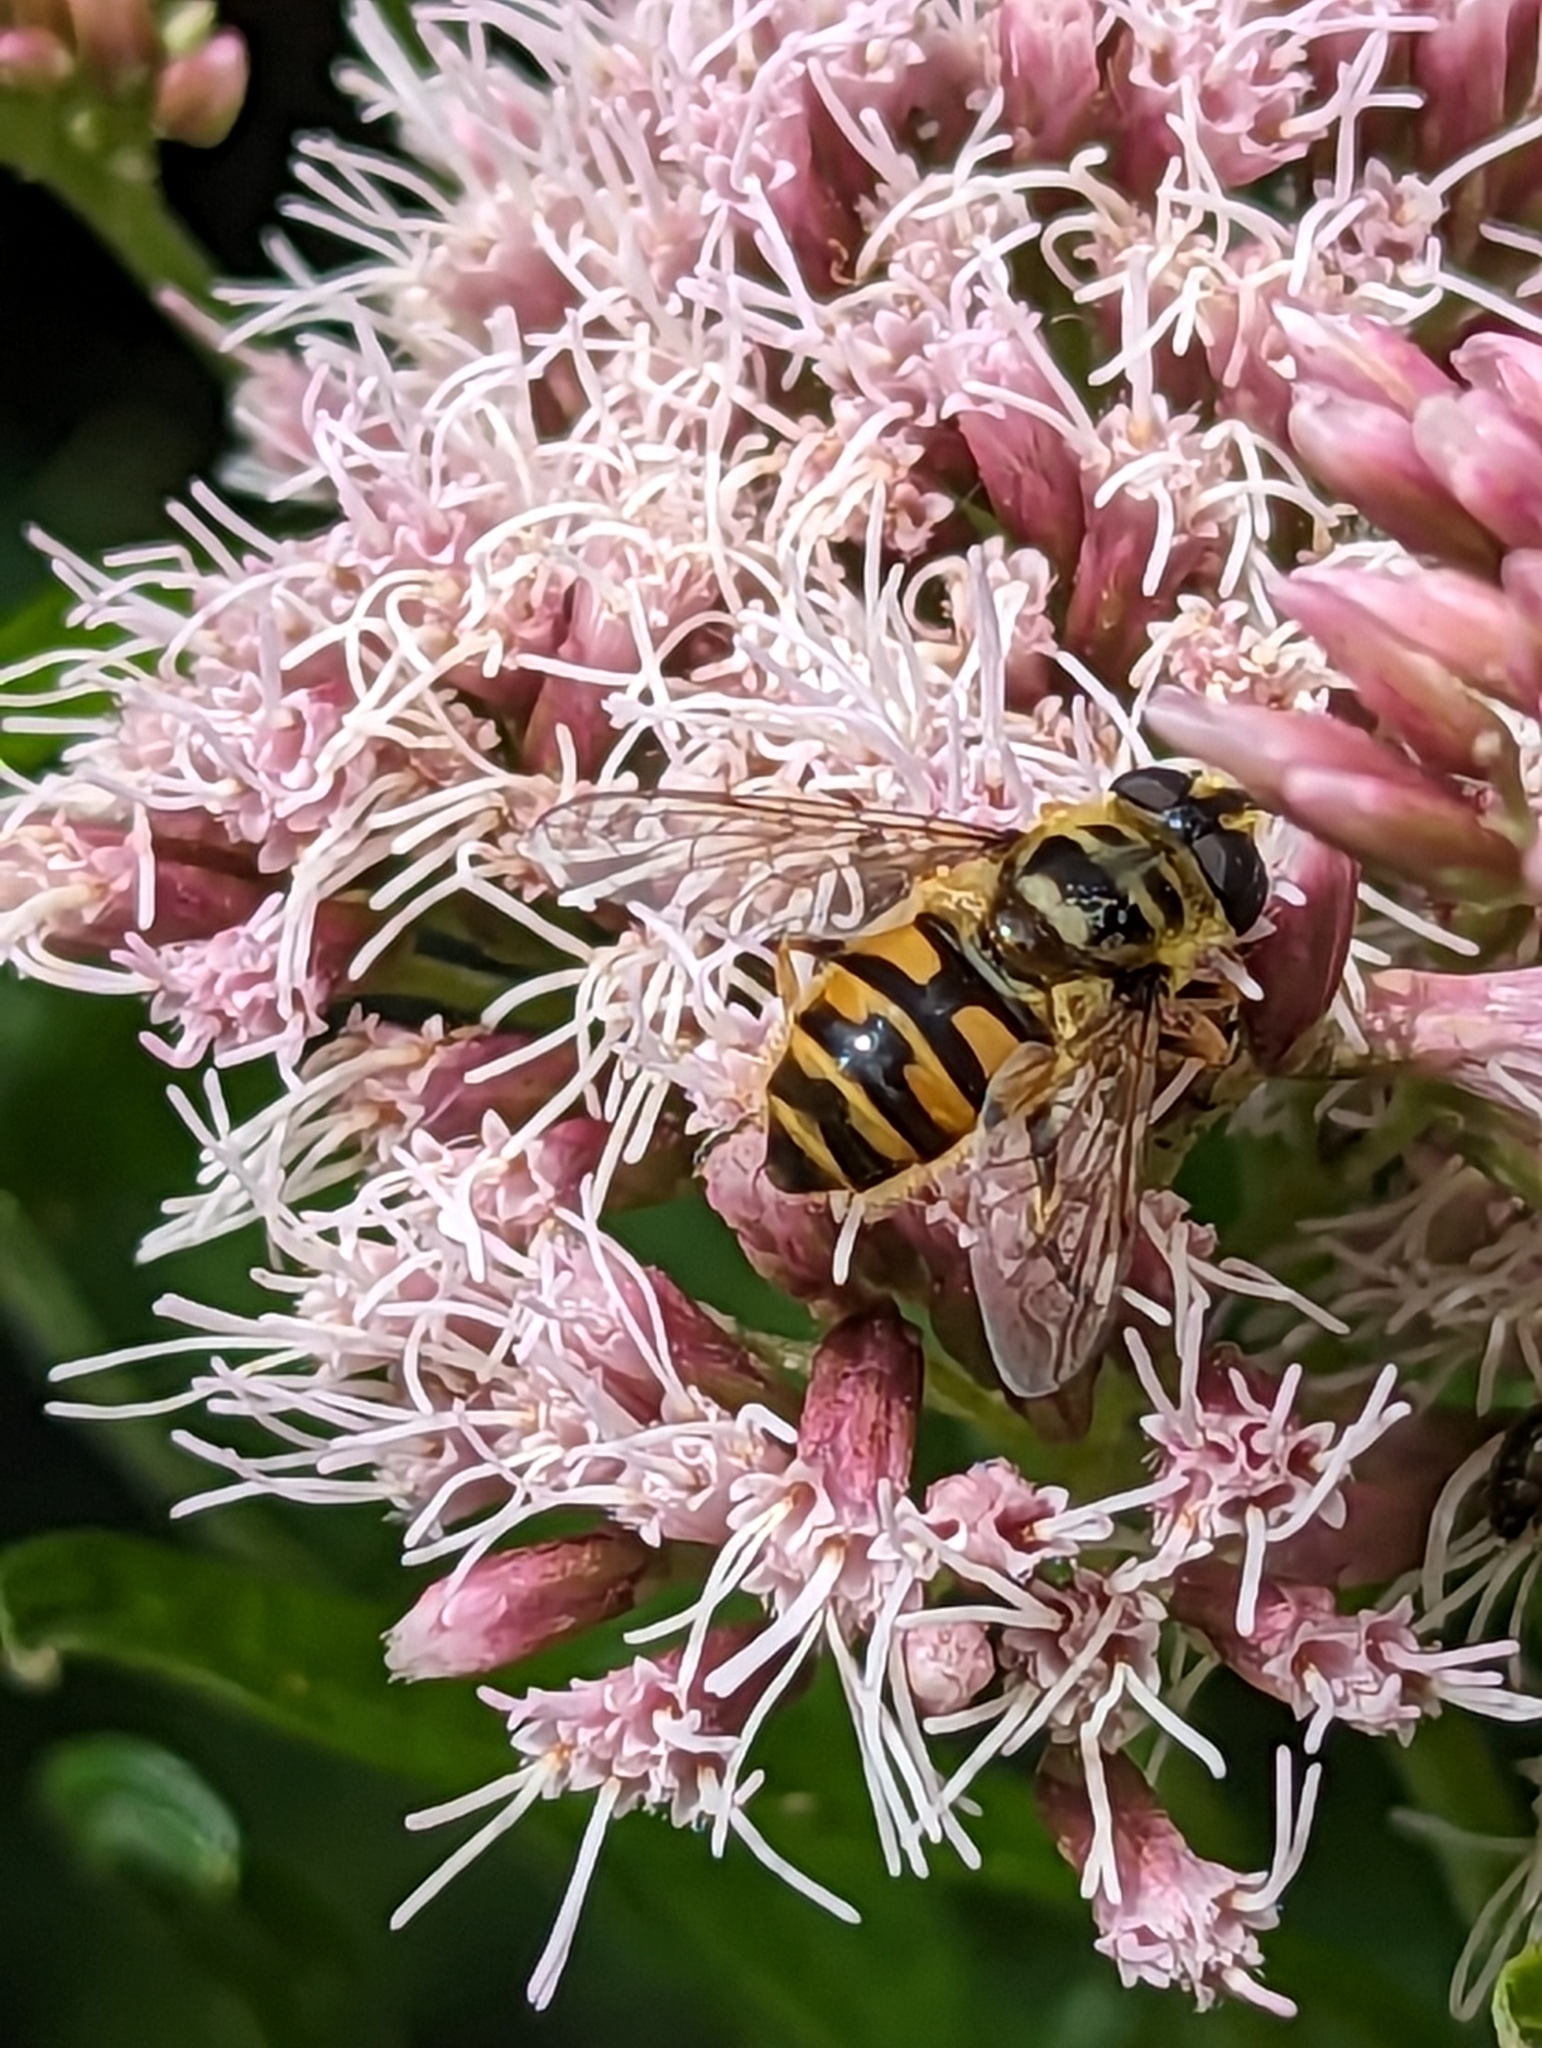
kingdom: Animalia
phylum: Arthropoda
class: Insecta
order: Diptera
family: Syrphidae
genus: Myathropa
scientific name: Myathropa florea
